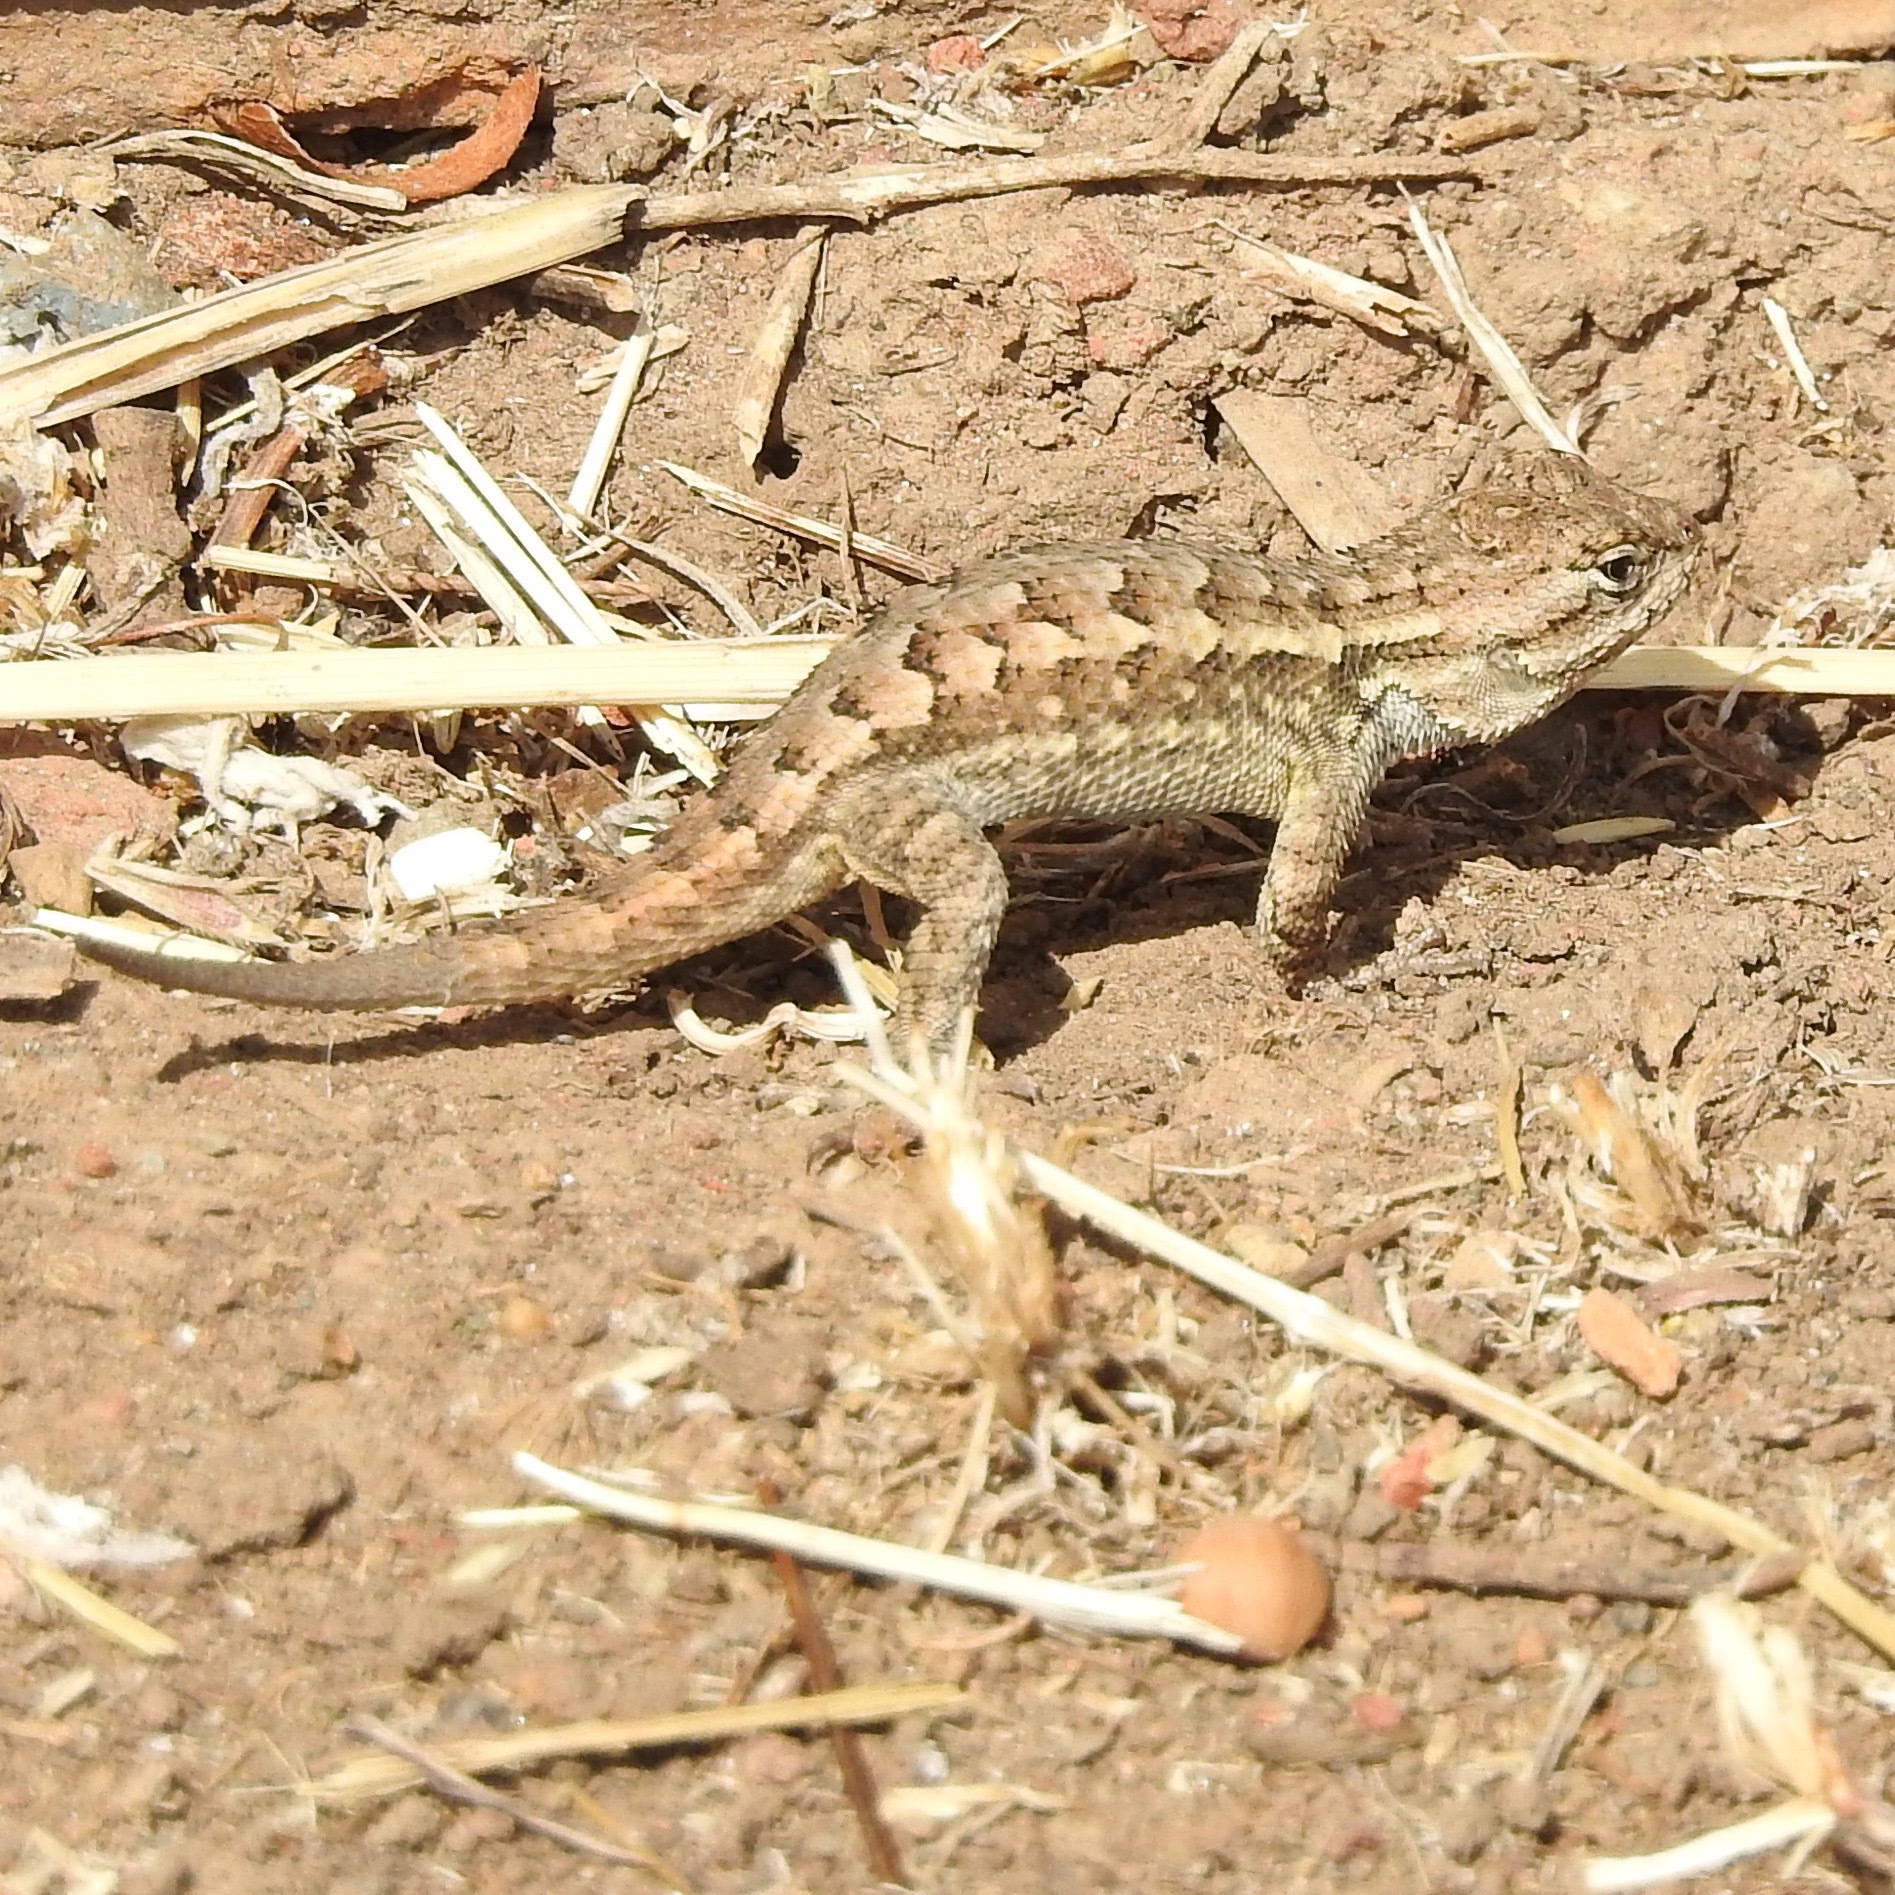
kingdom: Animalia
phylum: Chordata
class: Squamata
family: Phrynosomatidae
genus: Sceloporus
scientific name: Sceloporus occidentalis
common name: Western fence lizard
